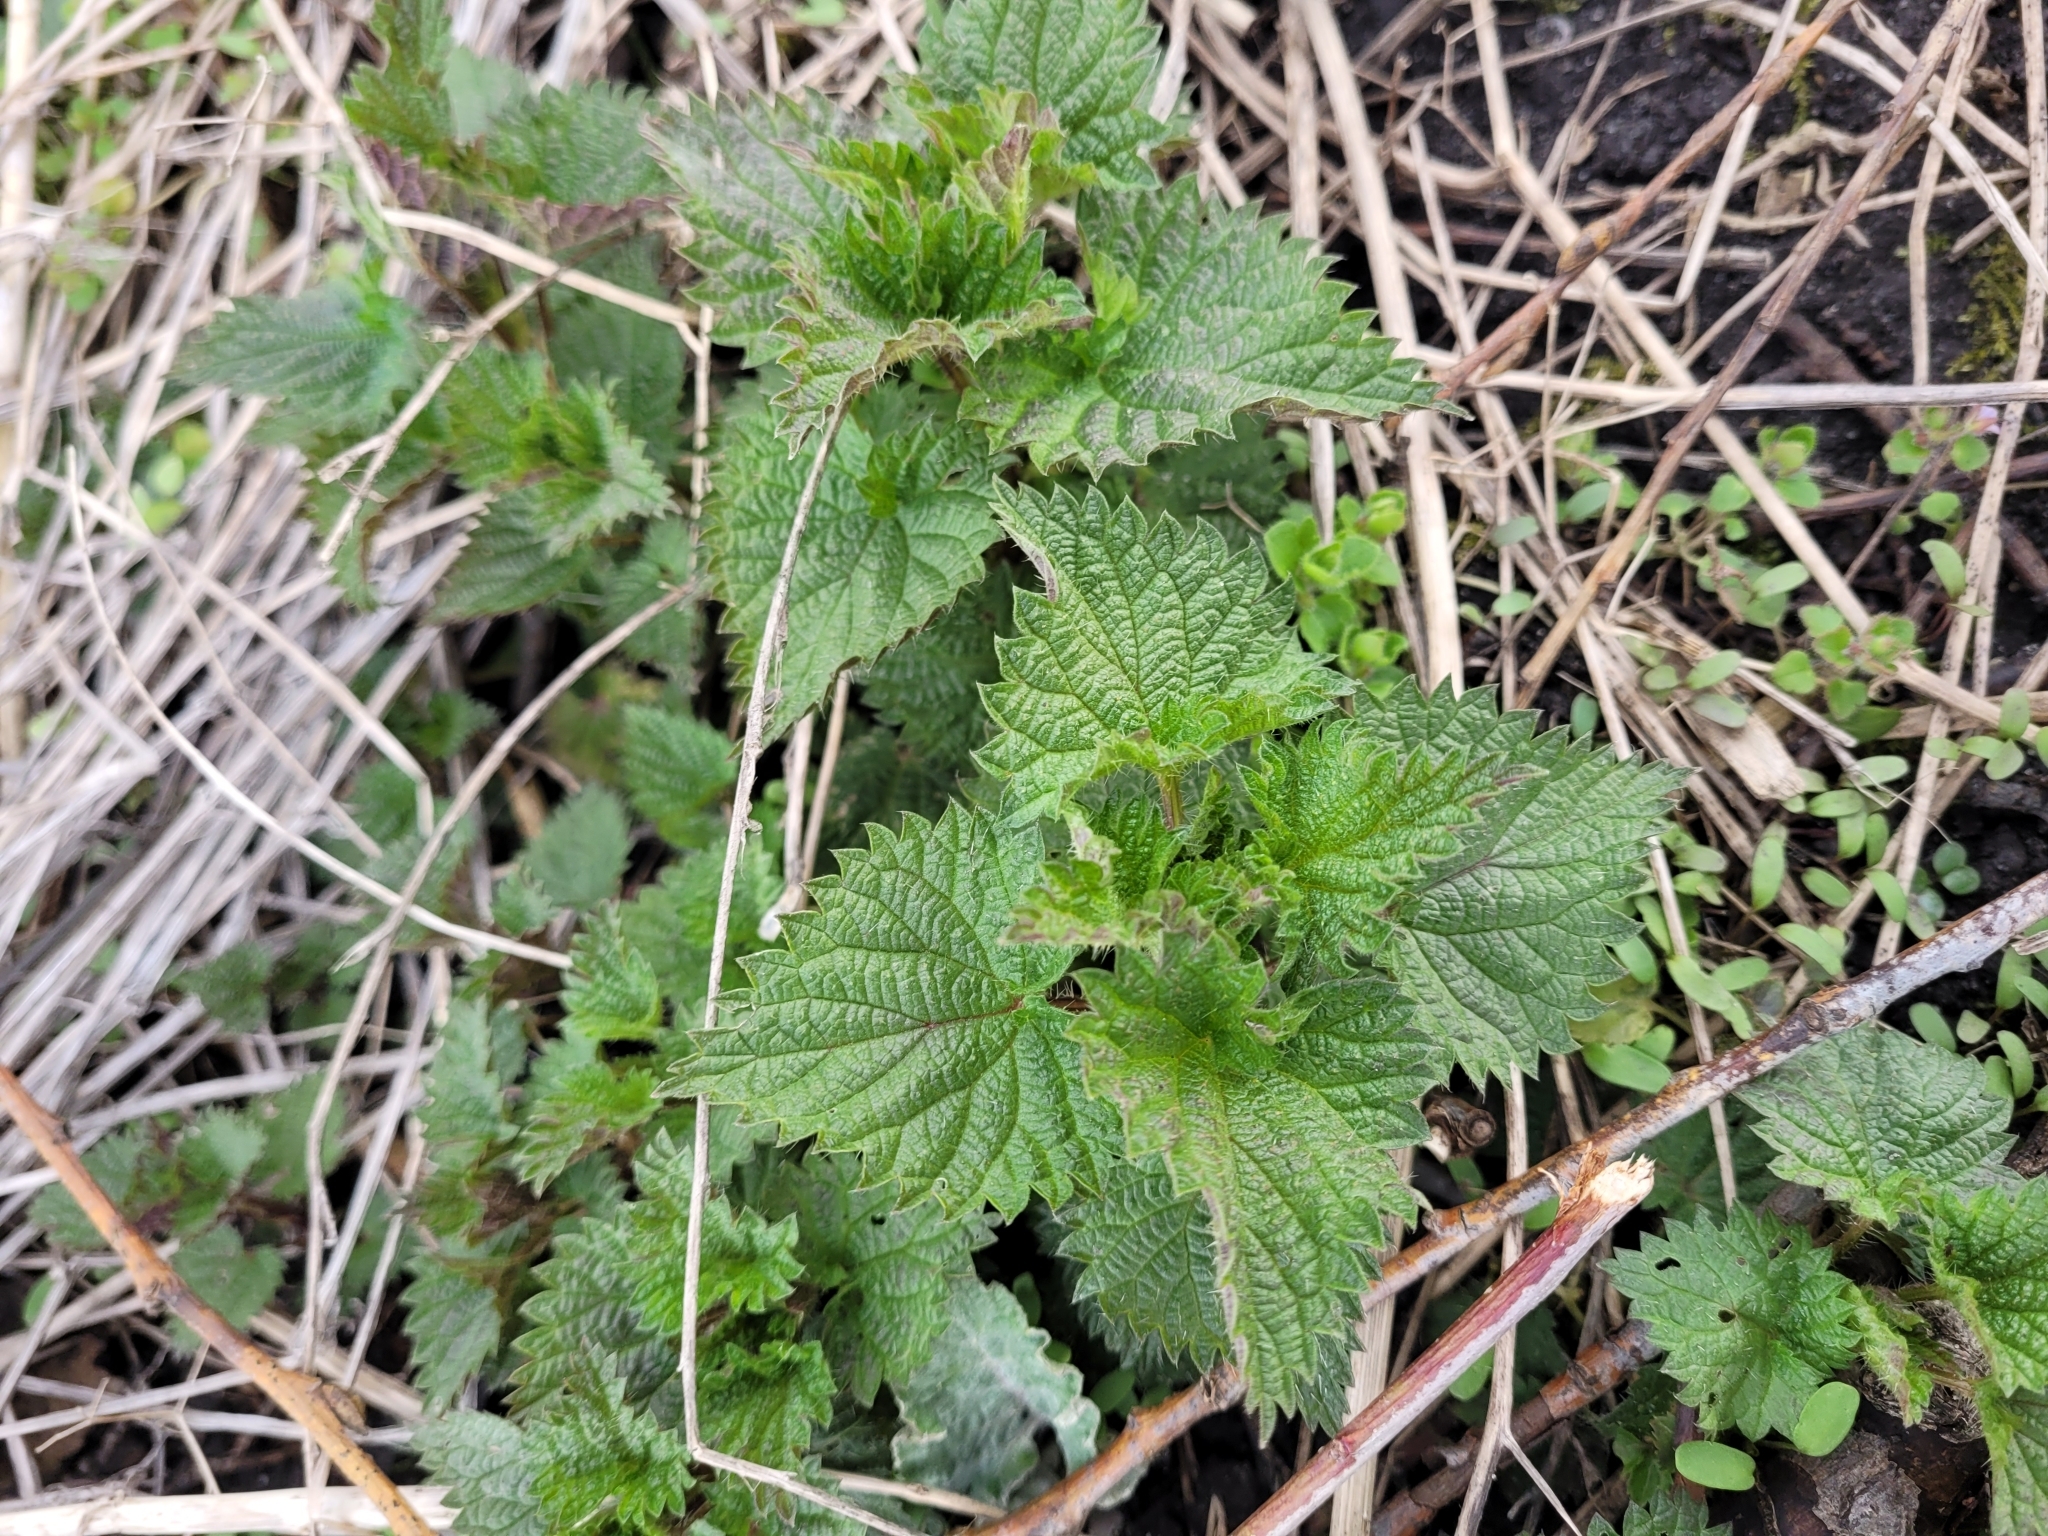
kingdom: Plantae
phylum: Tracheophyta
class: Magnoliopsida
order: Rosales
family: Urticaceae
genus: Urtica
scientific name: Urtica dioica
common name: Common nettle
